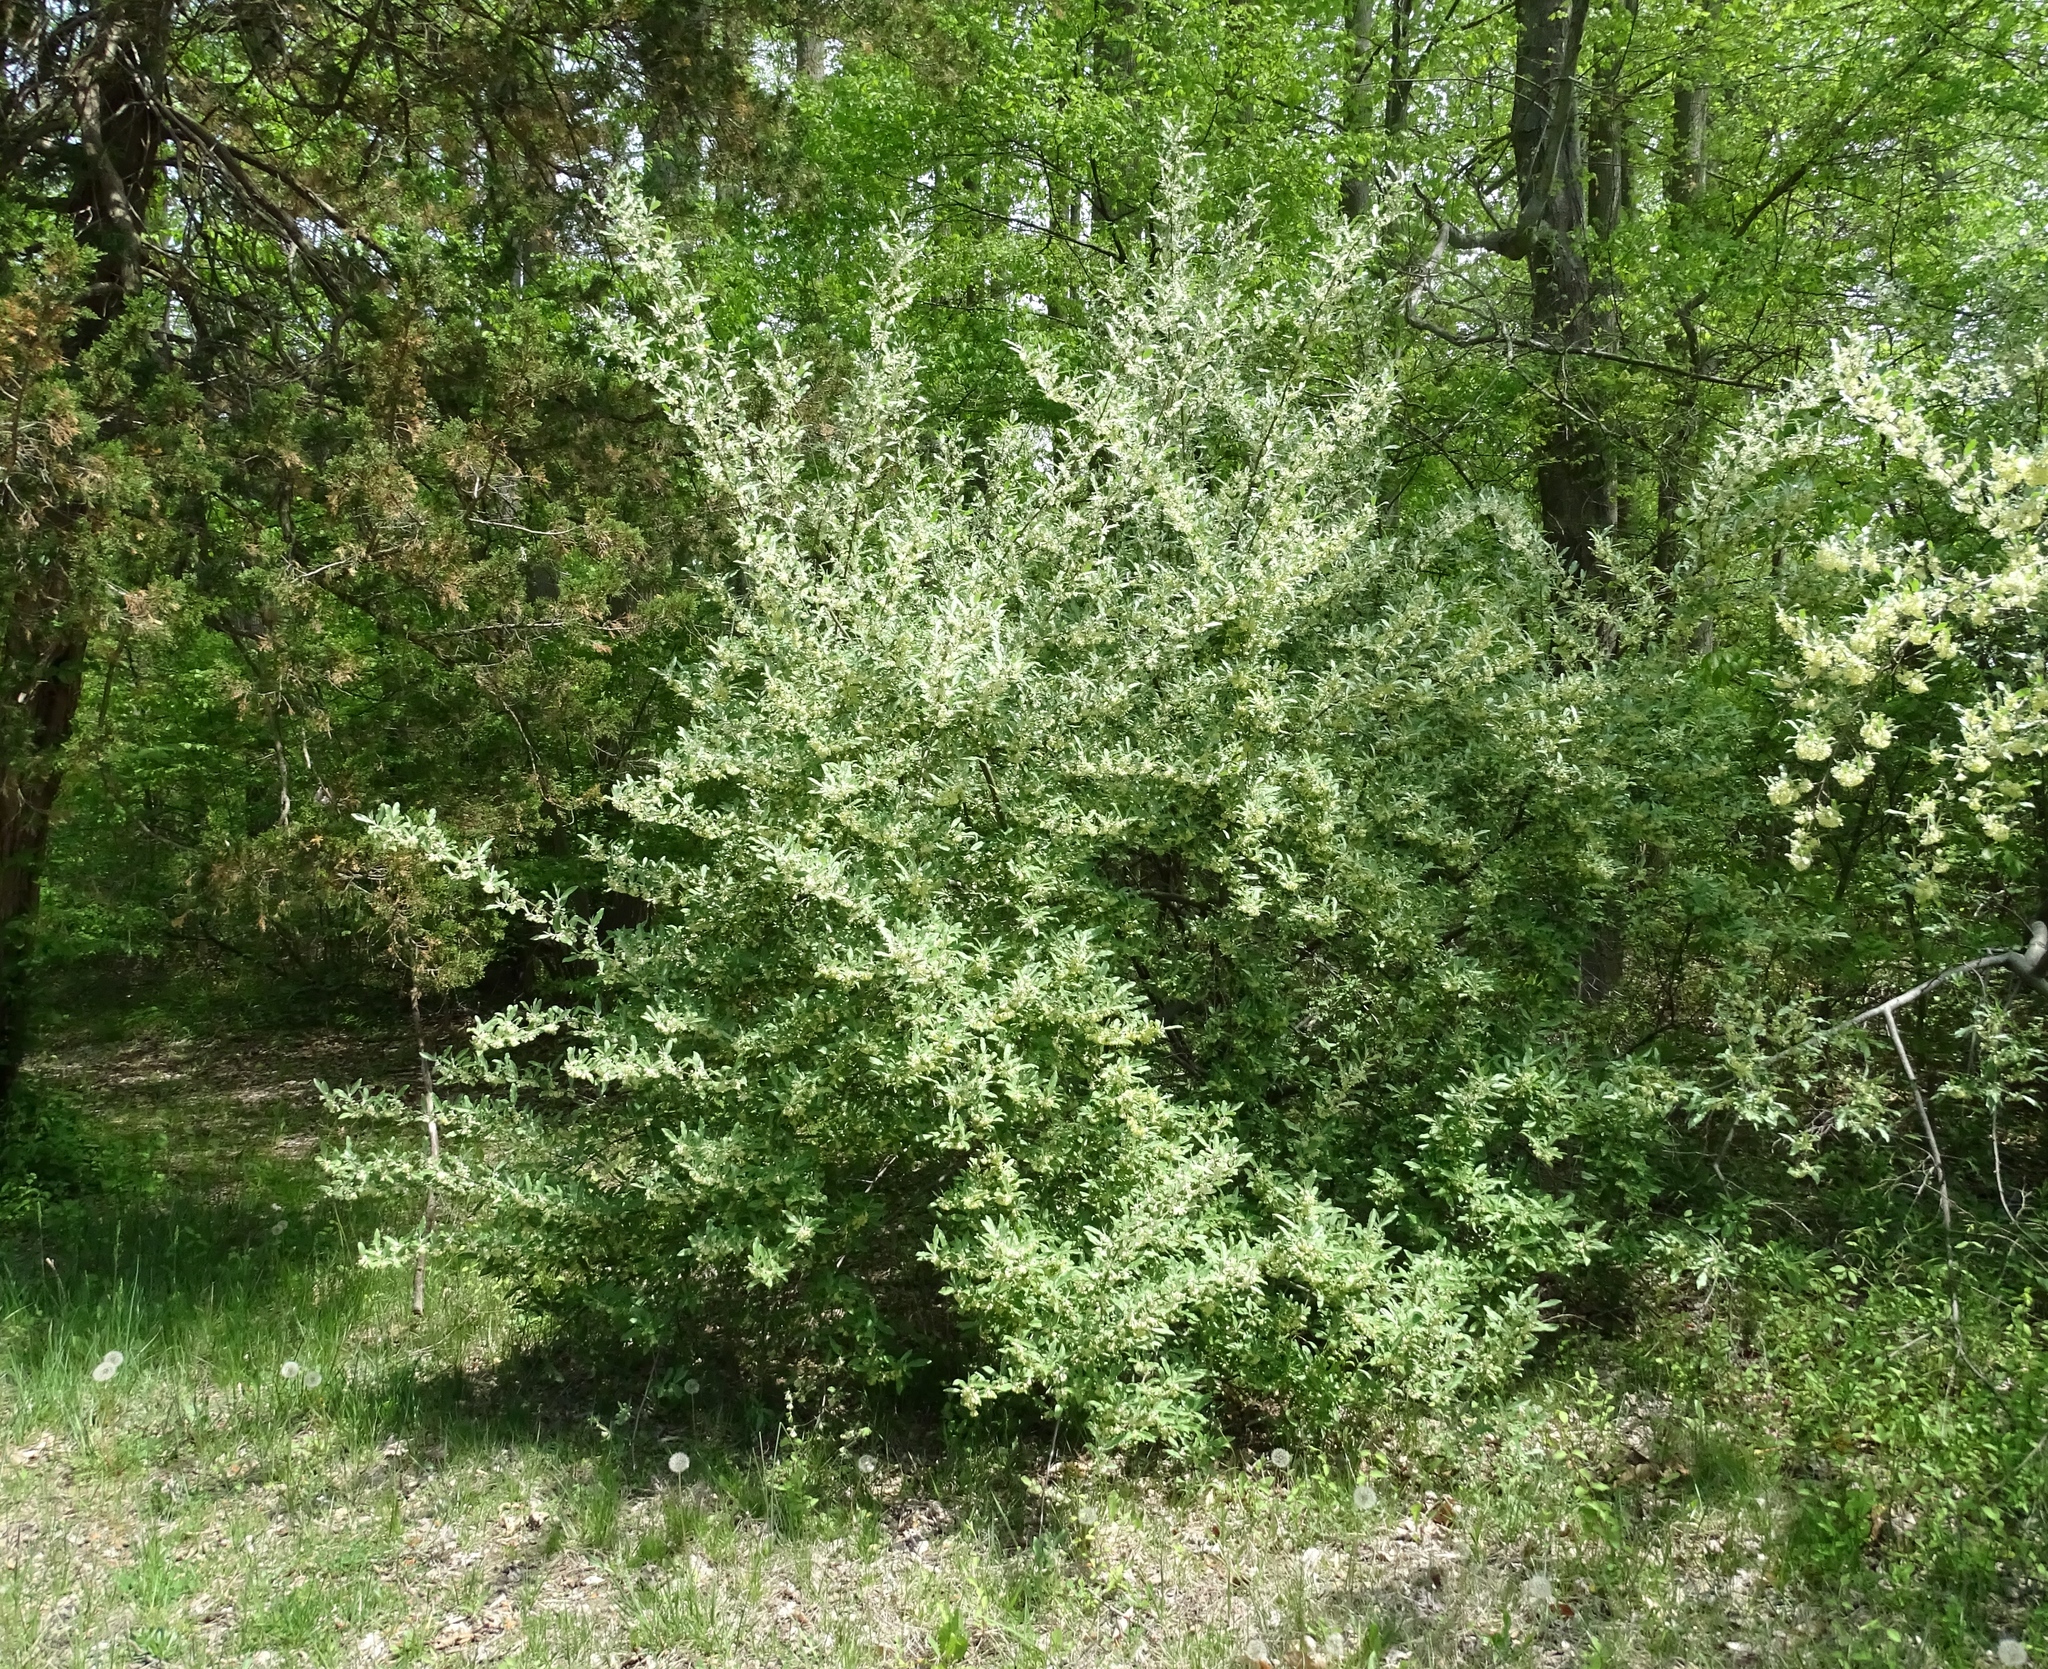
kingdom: Plantae
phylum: Tracheophyta
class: Magnoliopsida
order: Rosales
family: Elaeagnaceae
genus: Elaeagnus
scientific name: Elaeagnus umbellata
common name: Autumn olive
